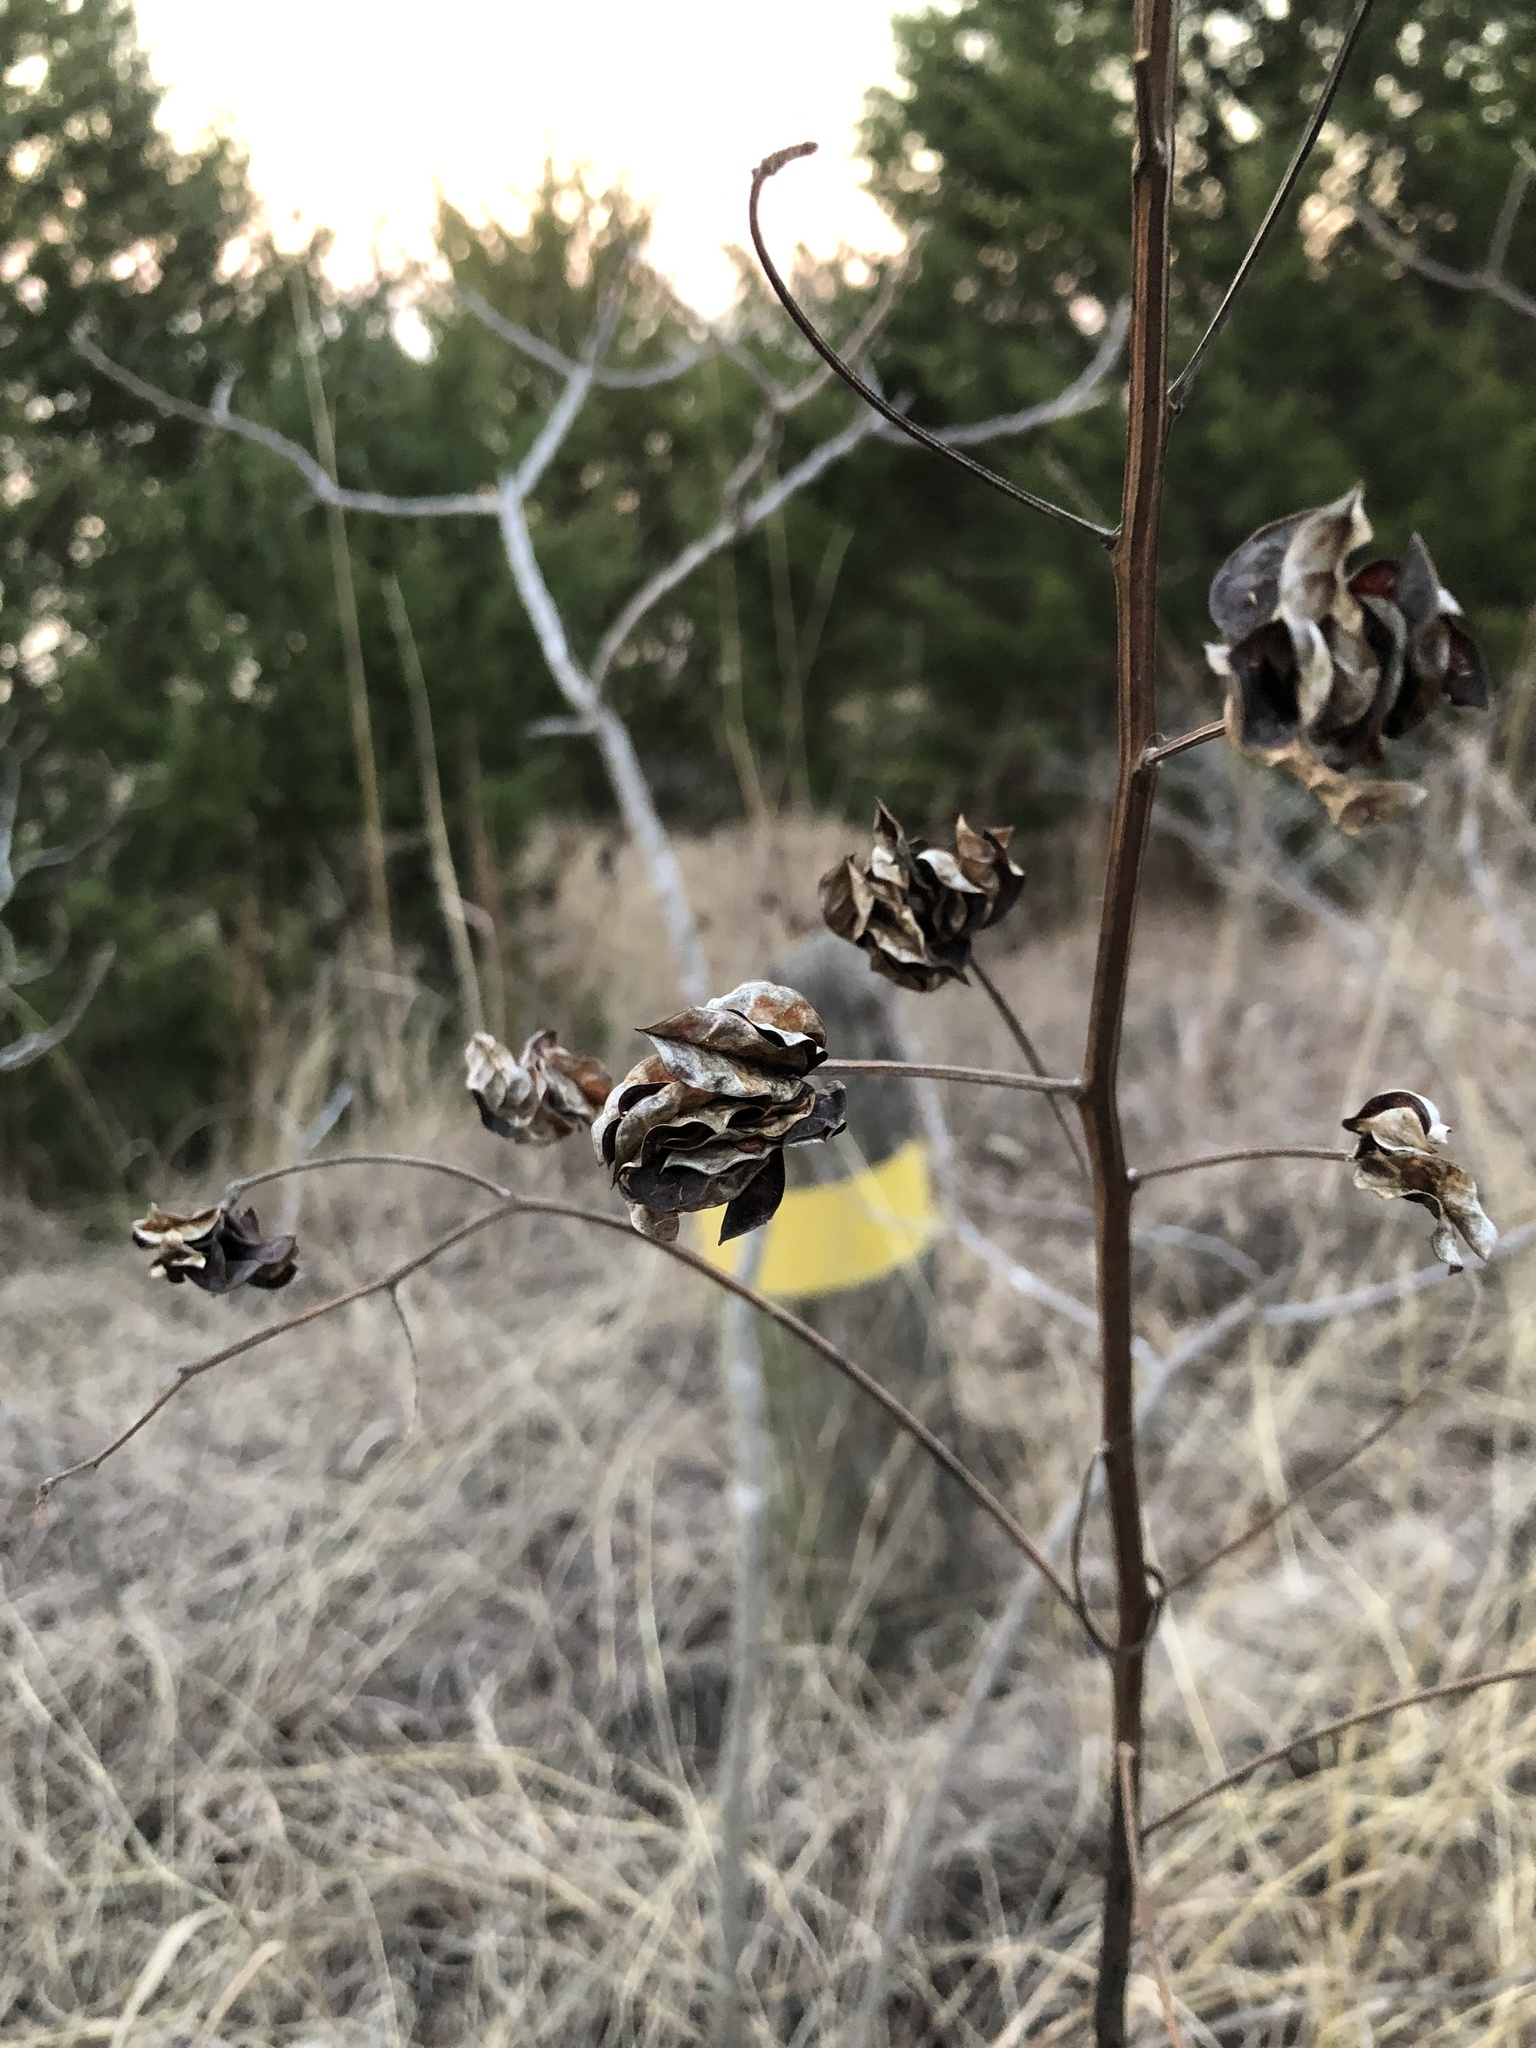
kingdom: Plantae
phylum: Tracheophyta
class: Magnoliopsida
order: Fabales
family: Fabaceae
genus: Desmanthus
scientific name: Desmanthus illinoensis
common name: Illinois bundle-flower
